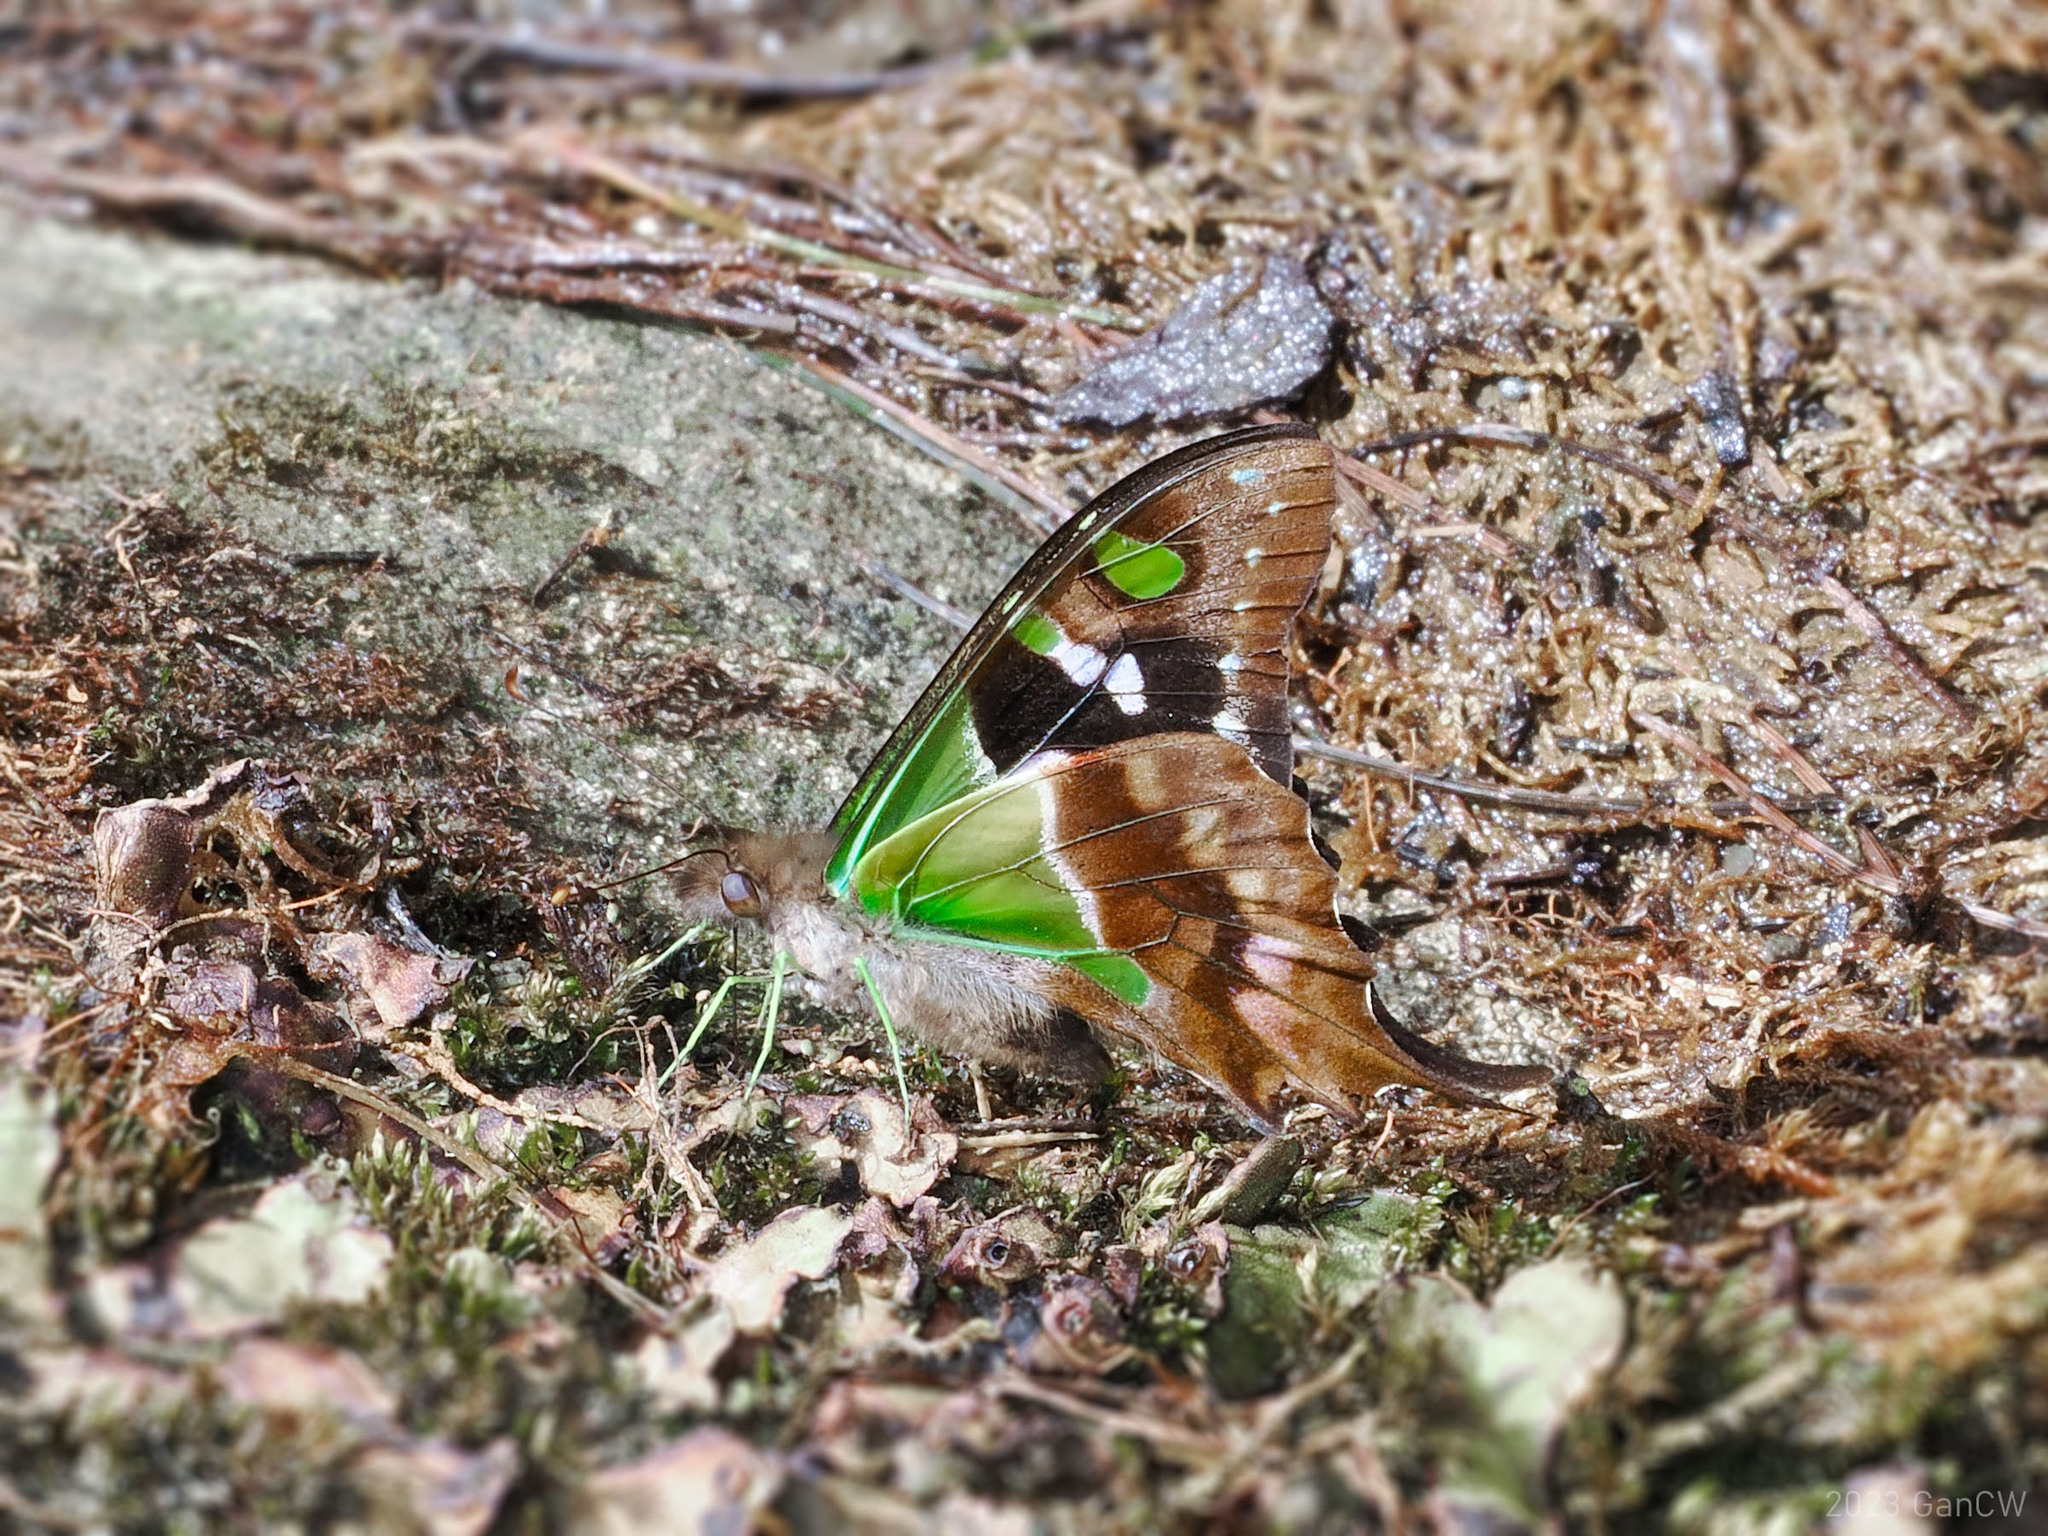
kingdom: Animalia
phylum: Arthropoda
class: Insecta
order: Lepidoptera
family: Papilionidae
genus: Graphium
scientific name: Graphium weiskei
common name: Purple spotted swallowtail
